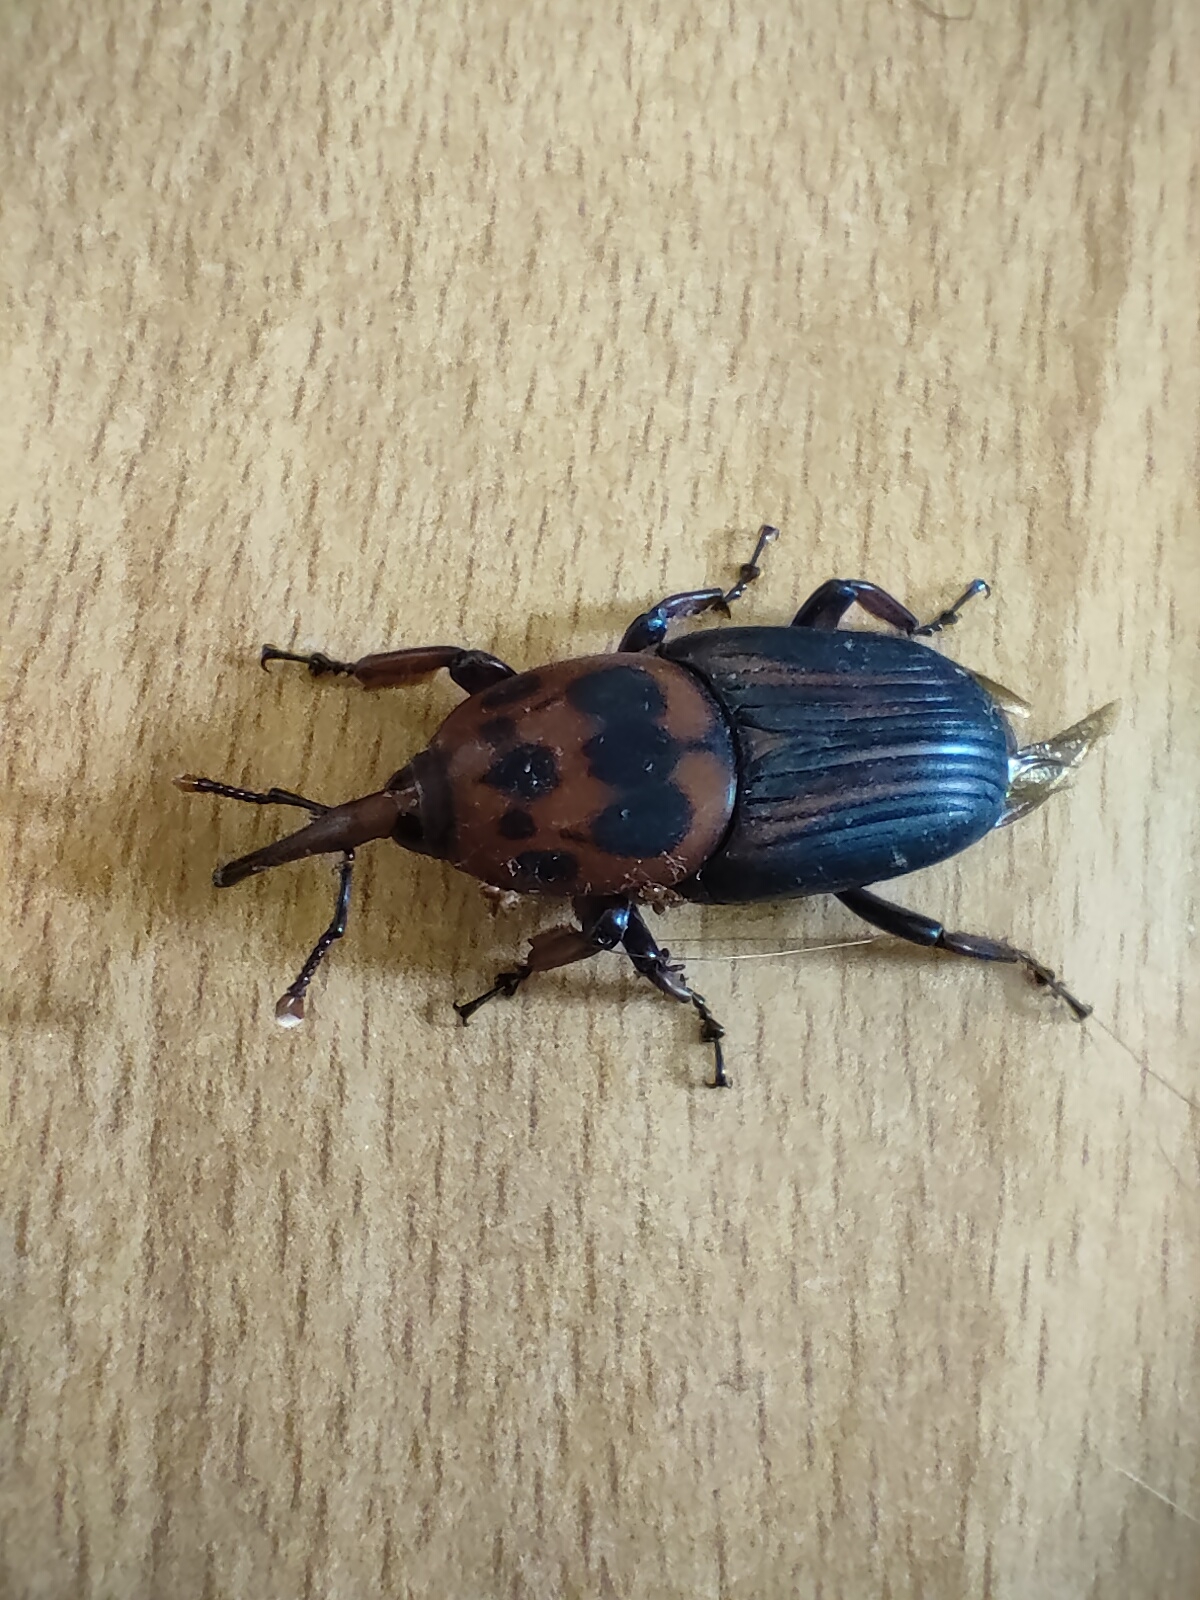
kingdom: Animalia
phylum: Arthropoda
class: Insecta
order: Coleoptera
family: Dryophthoridae
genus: Rhynchophorus
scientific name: Rhynchophorus ferrugineus
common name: Red palm weevil
